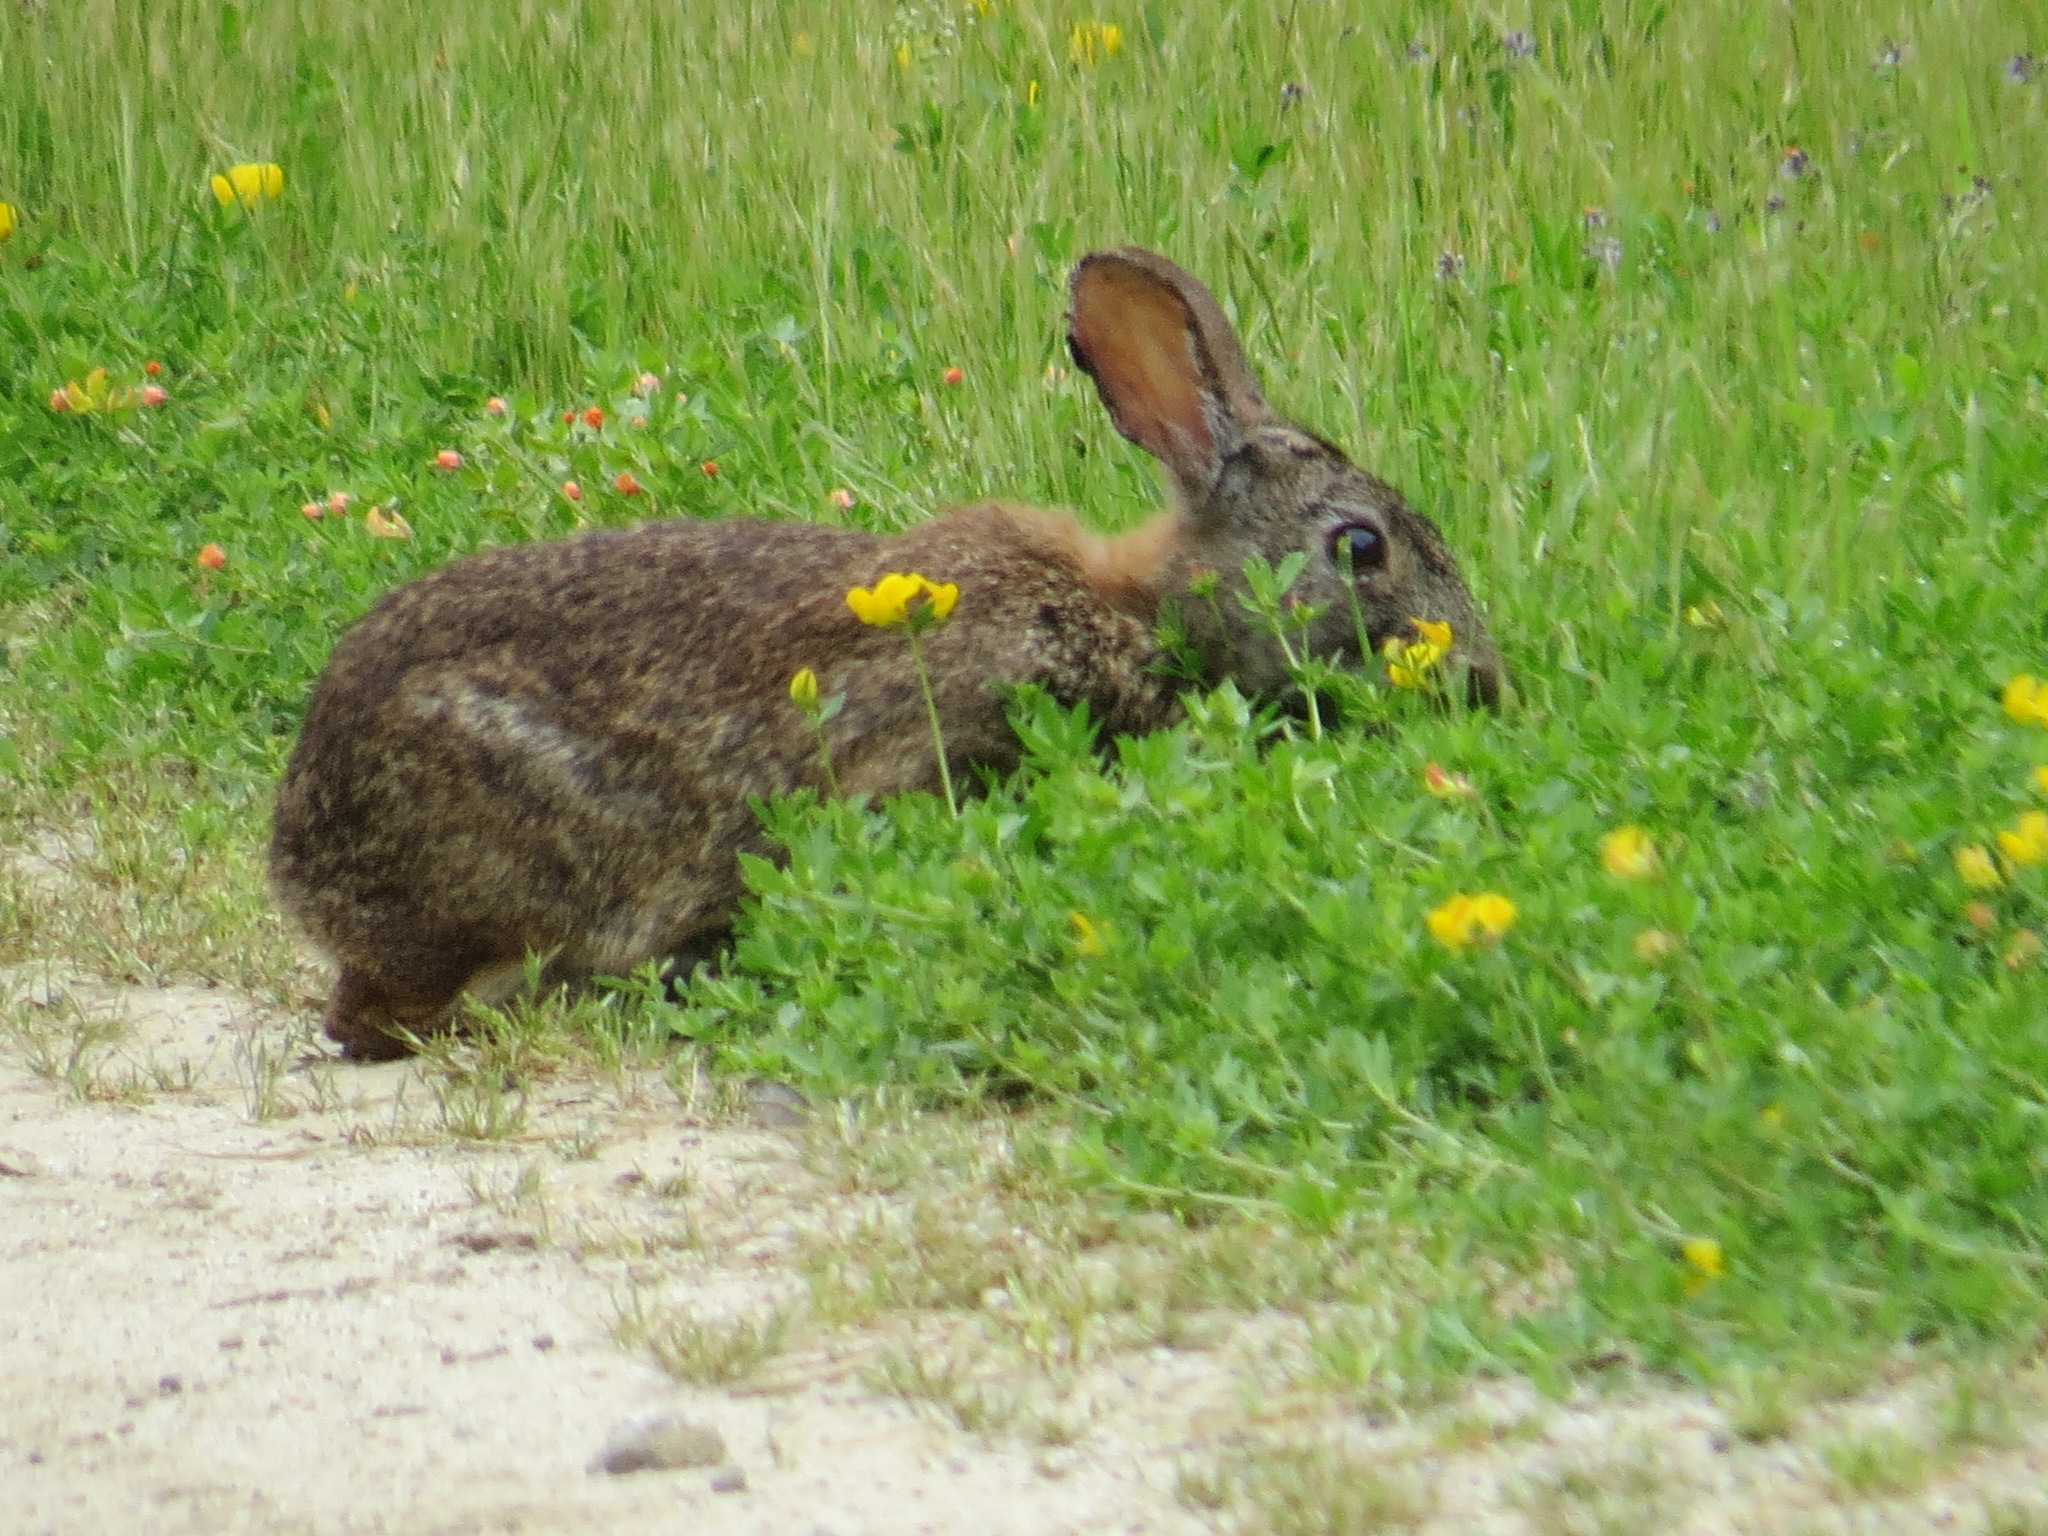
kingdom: Animalia
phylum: Chordata
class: Mammalia
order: Lagomorpha
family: Leporidae
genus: Sylvilagus
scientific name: Sylvilagus bachmani
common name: Brush rabbit
